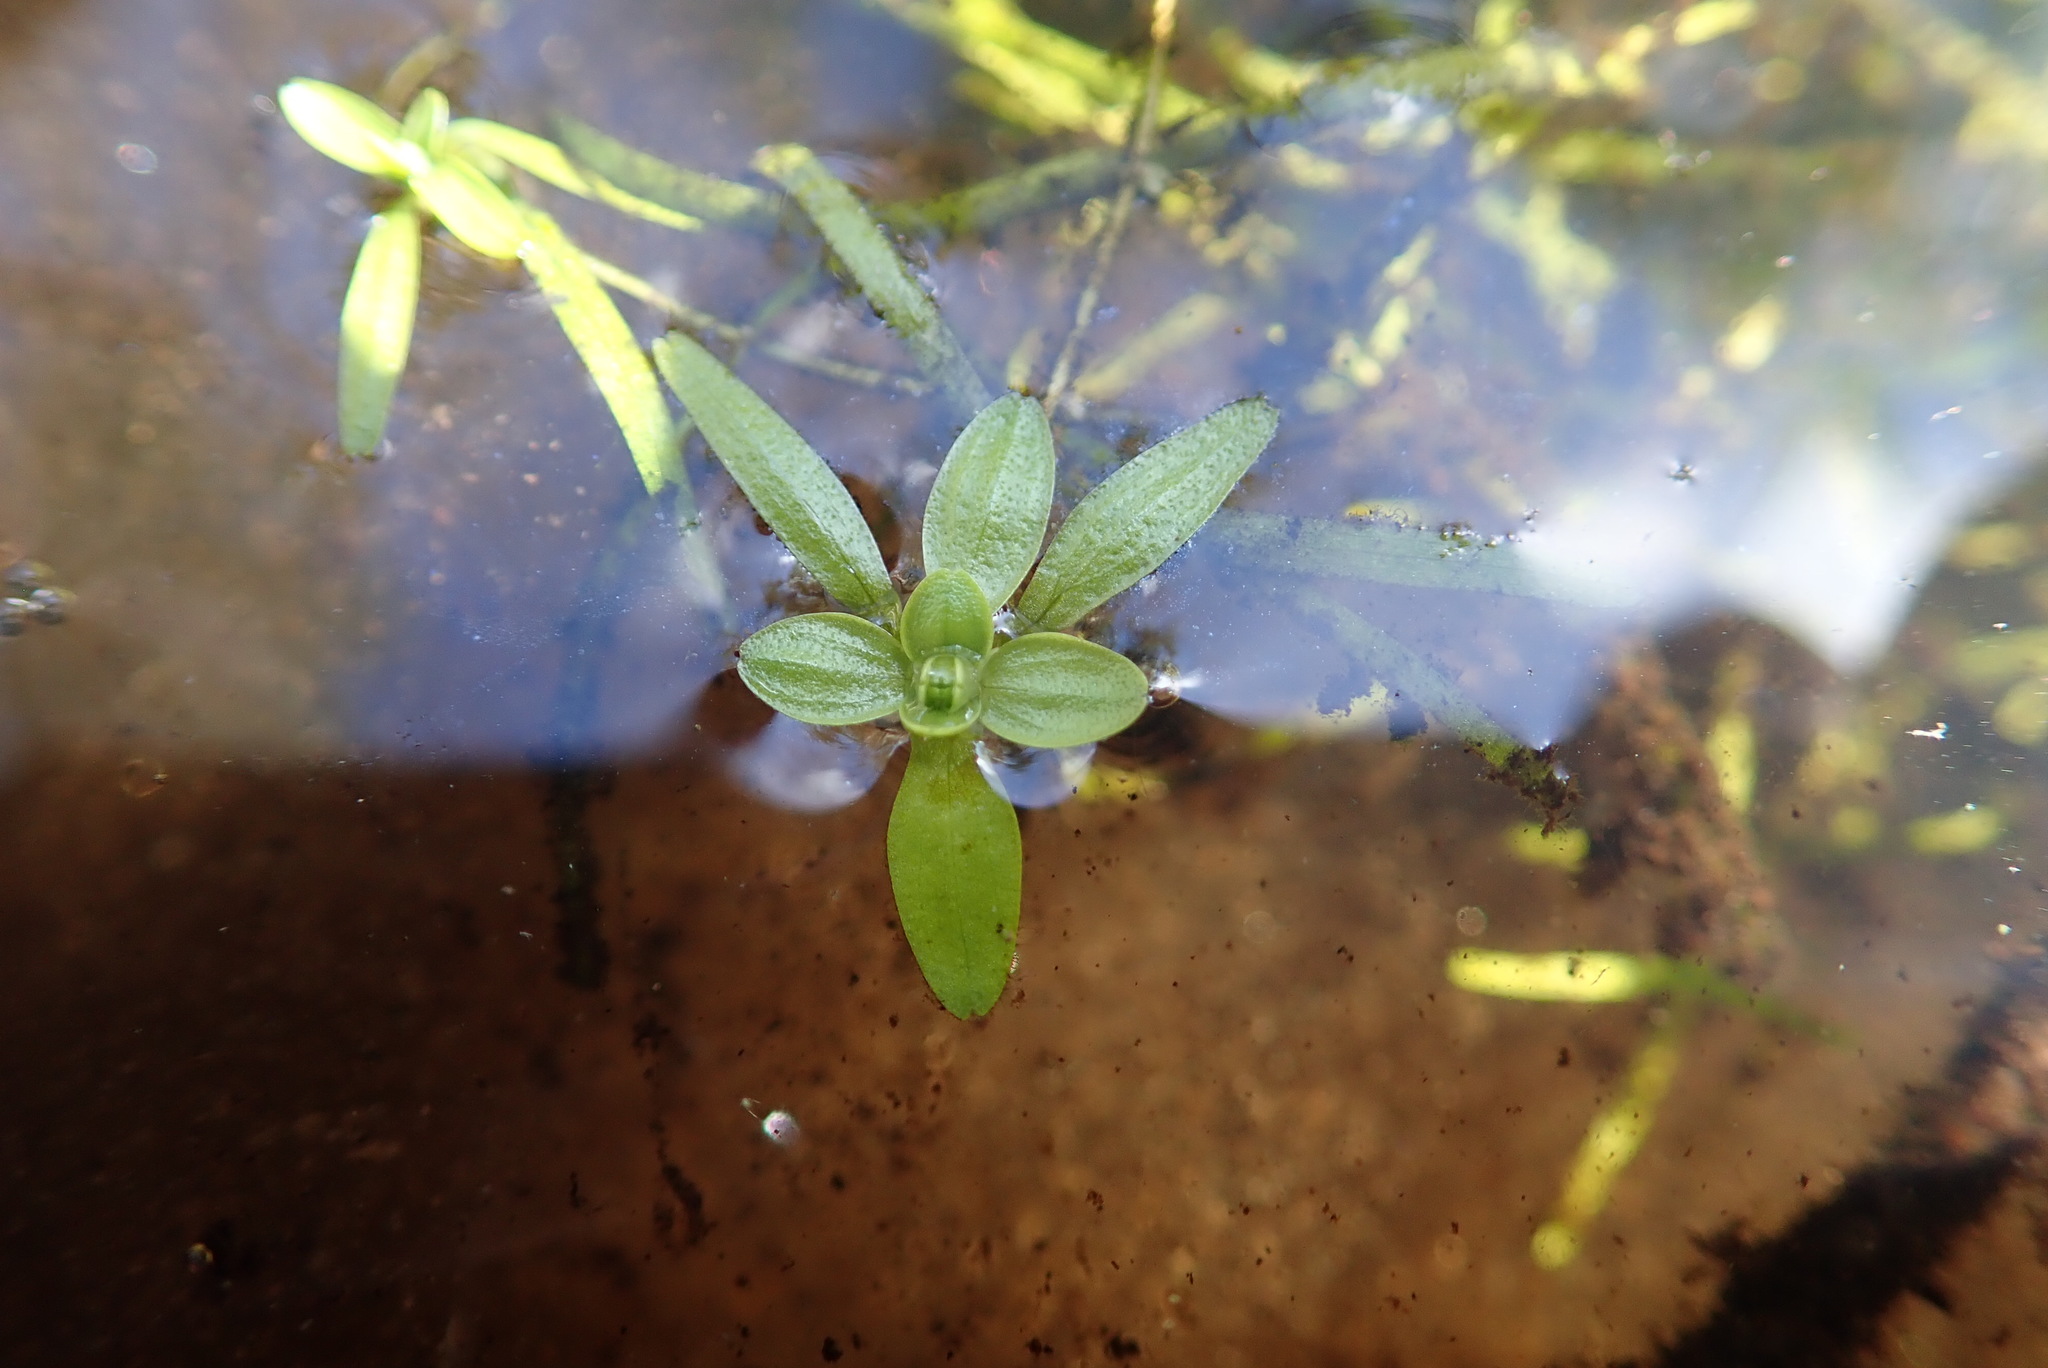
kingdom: Plantae
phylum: Tracheophyta
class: Magnoliopsida
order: Lamiales
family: Plantaginaceae
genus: Callitriche
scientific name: Callitriche palustris
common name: Spring water-starwort
